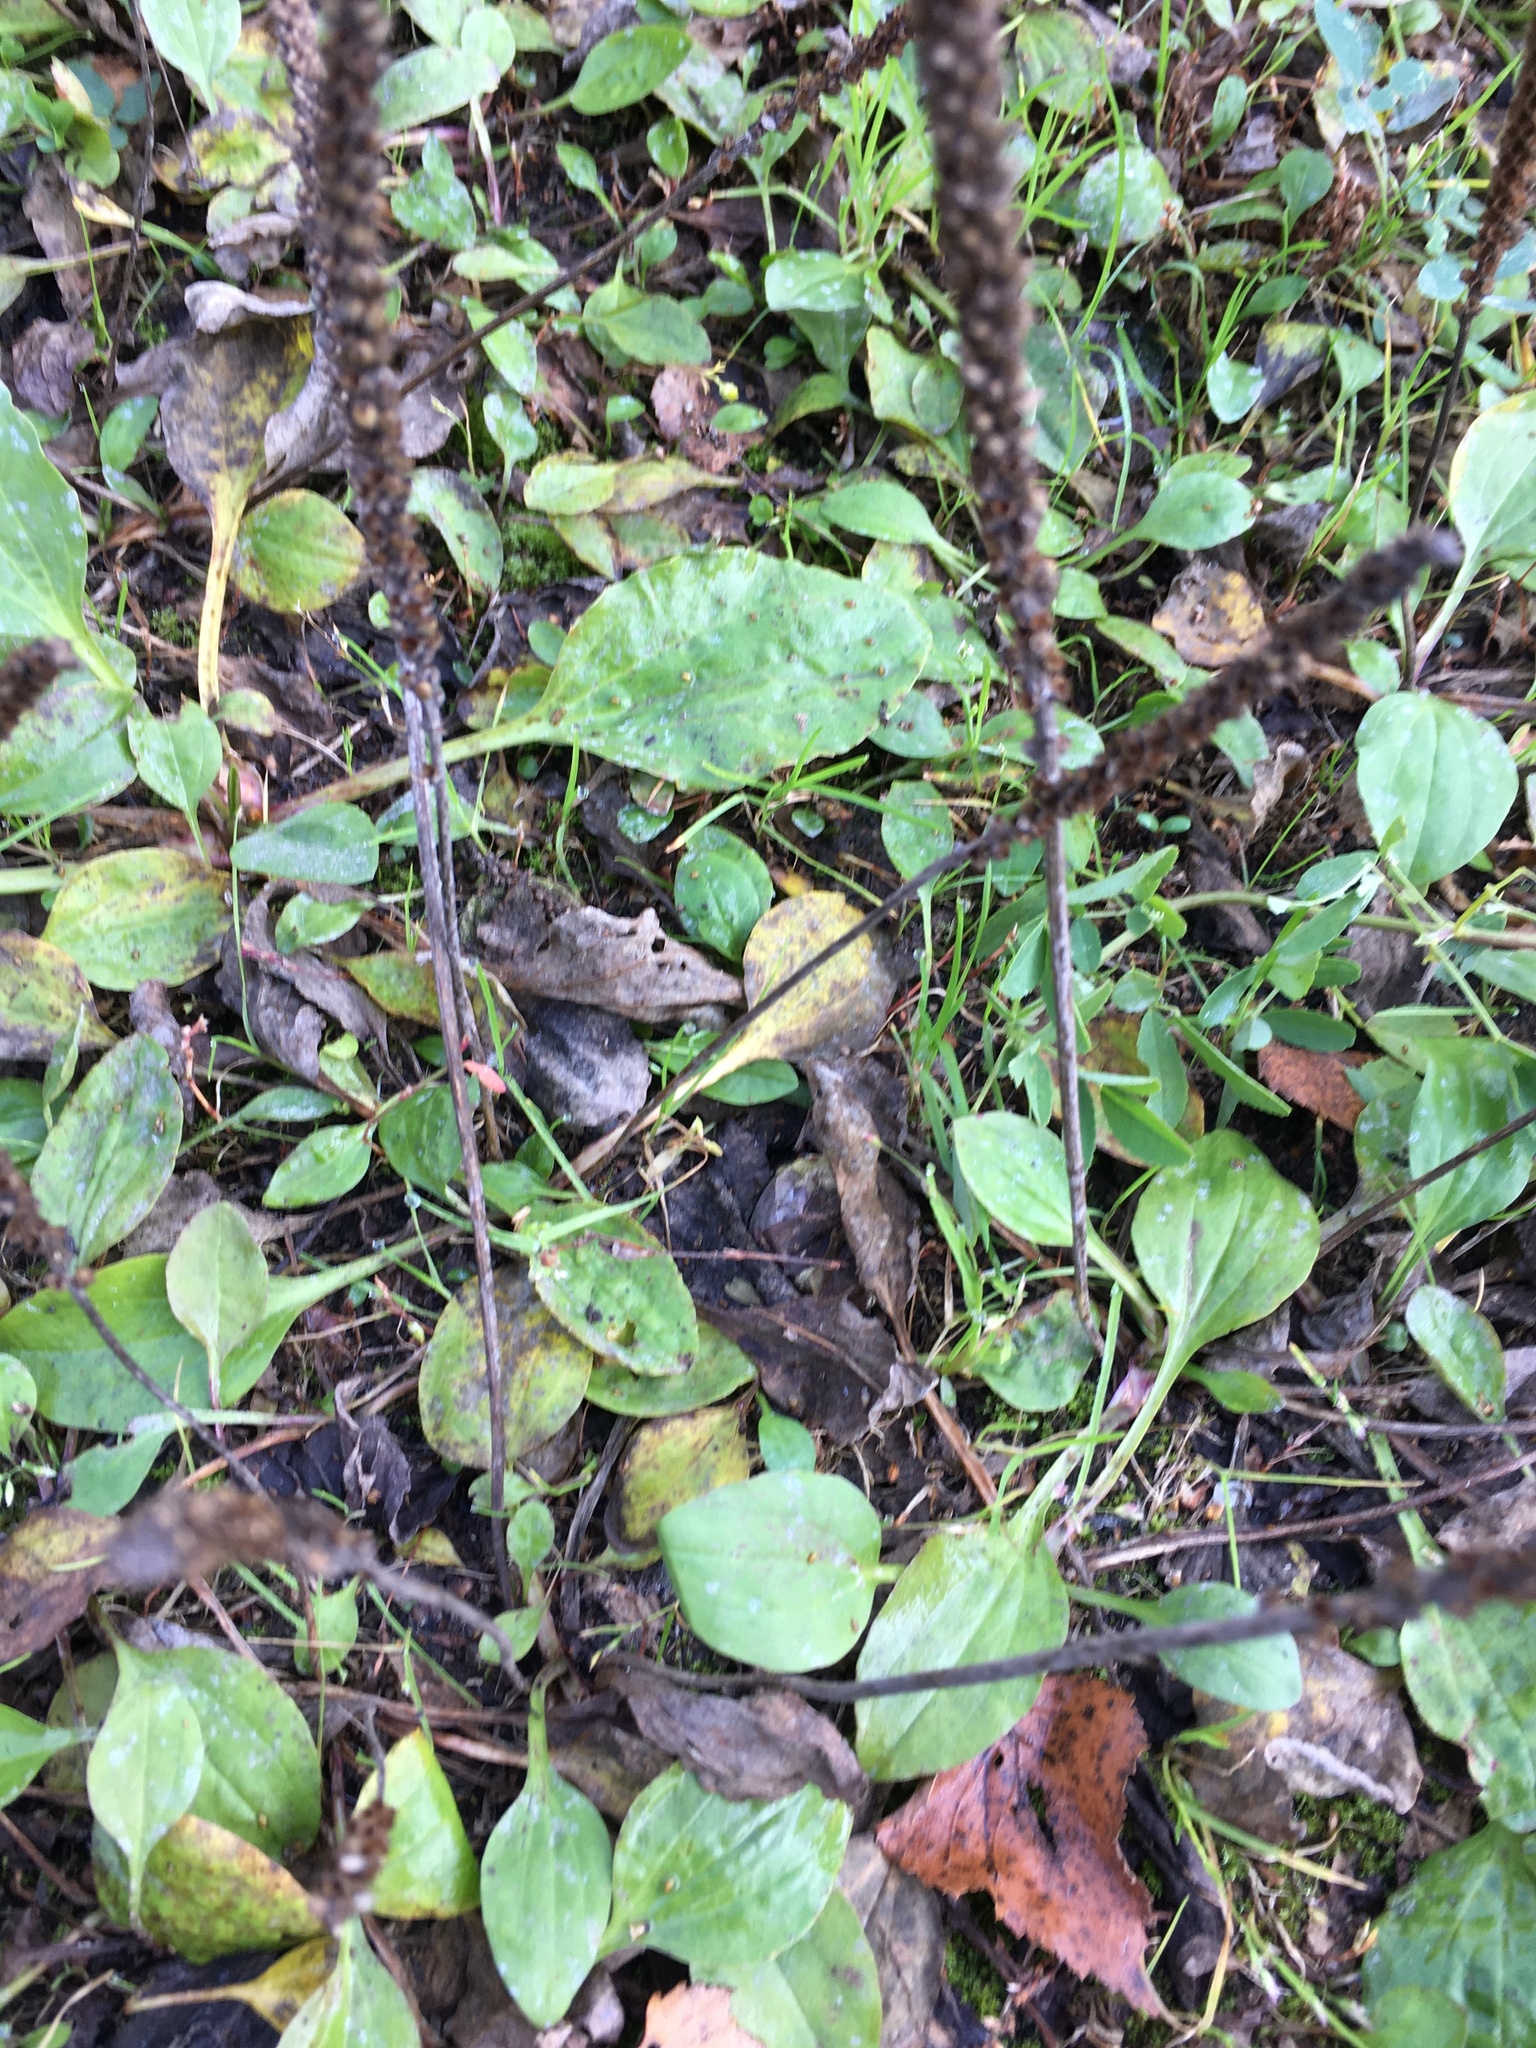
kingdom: Plantae
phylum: Tracheophyta
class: Magnoliopsida
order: Lamiales
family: Plantaginaceae
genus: Plantago
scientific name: Plantago major
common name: Common plantain
